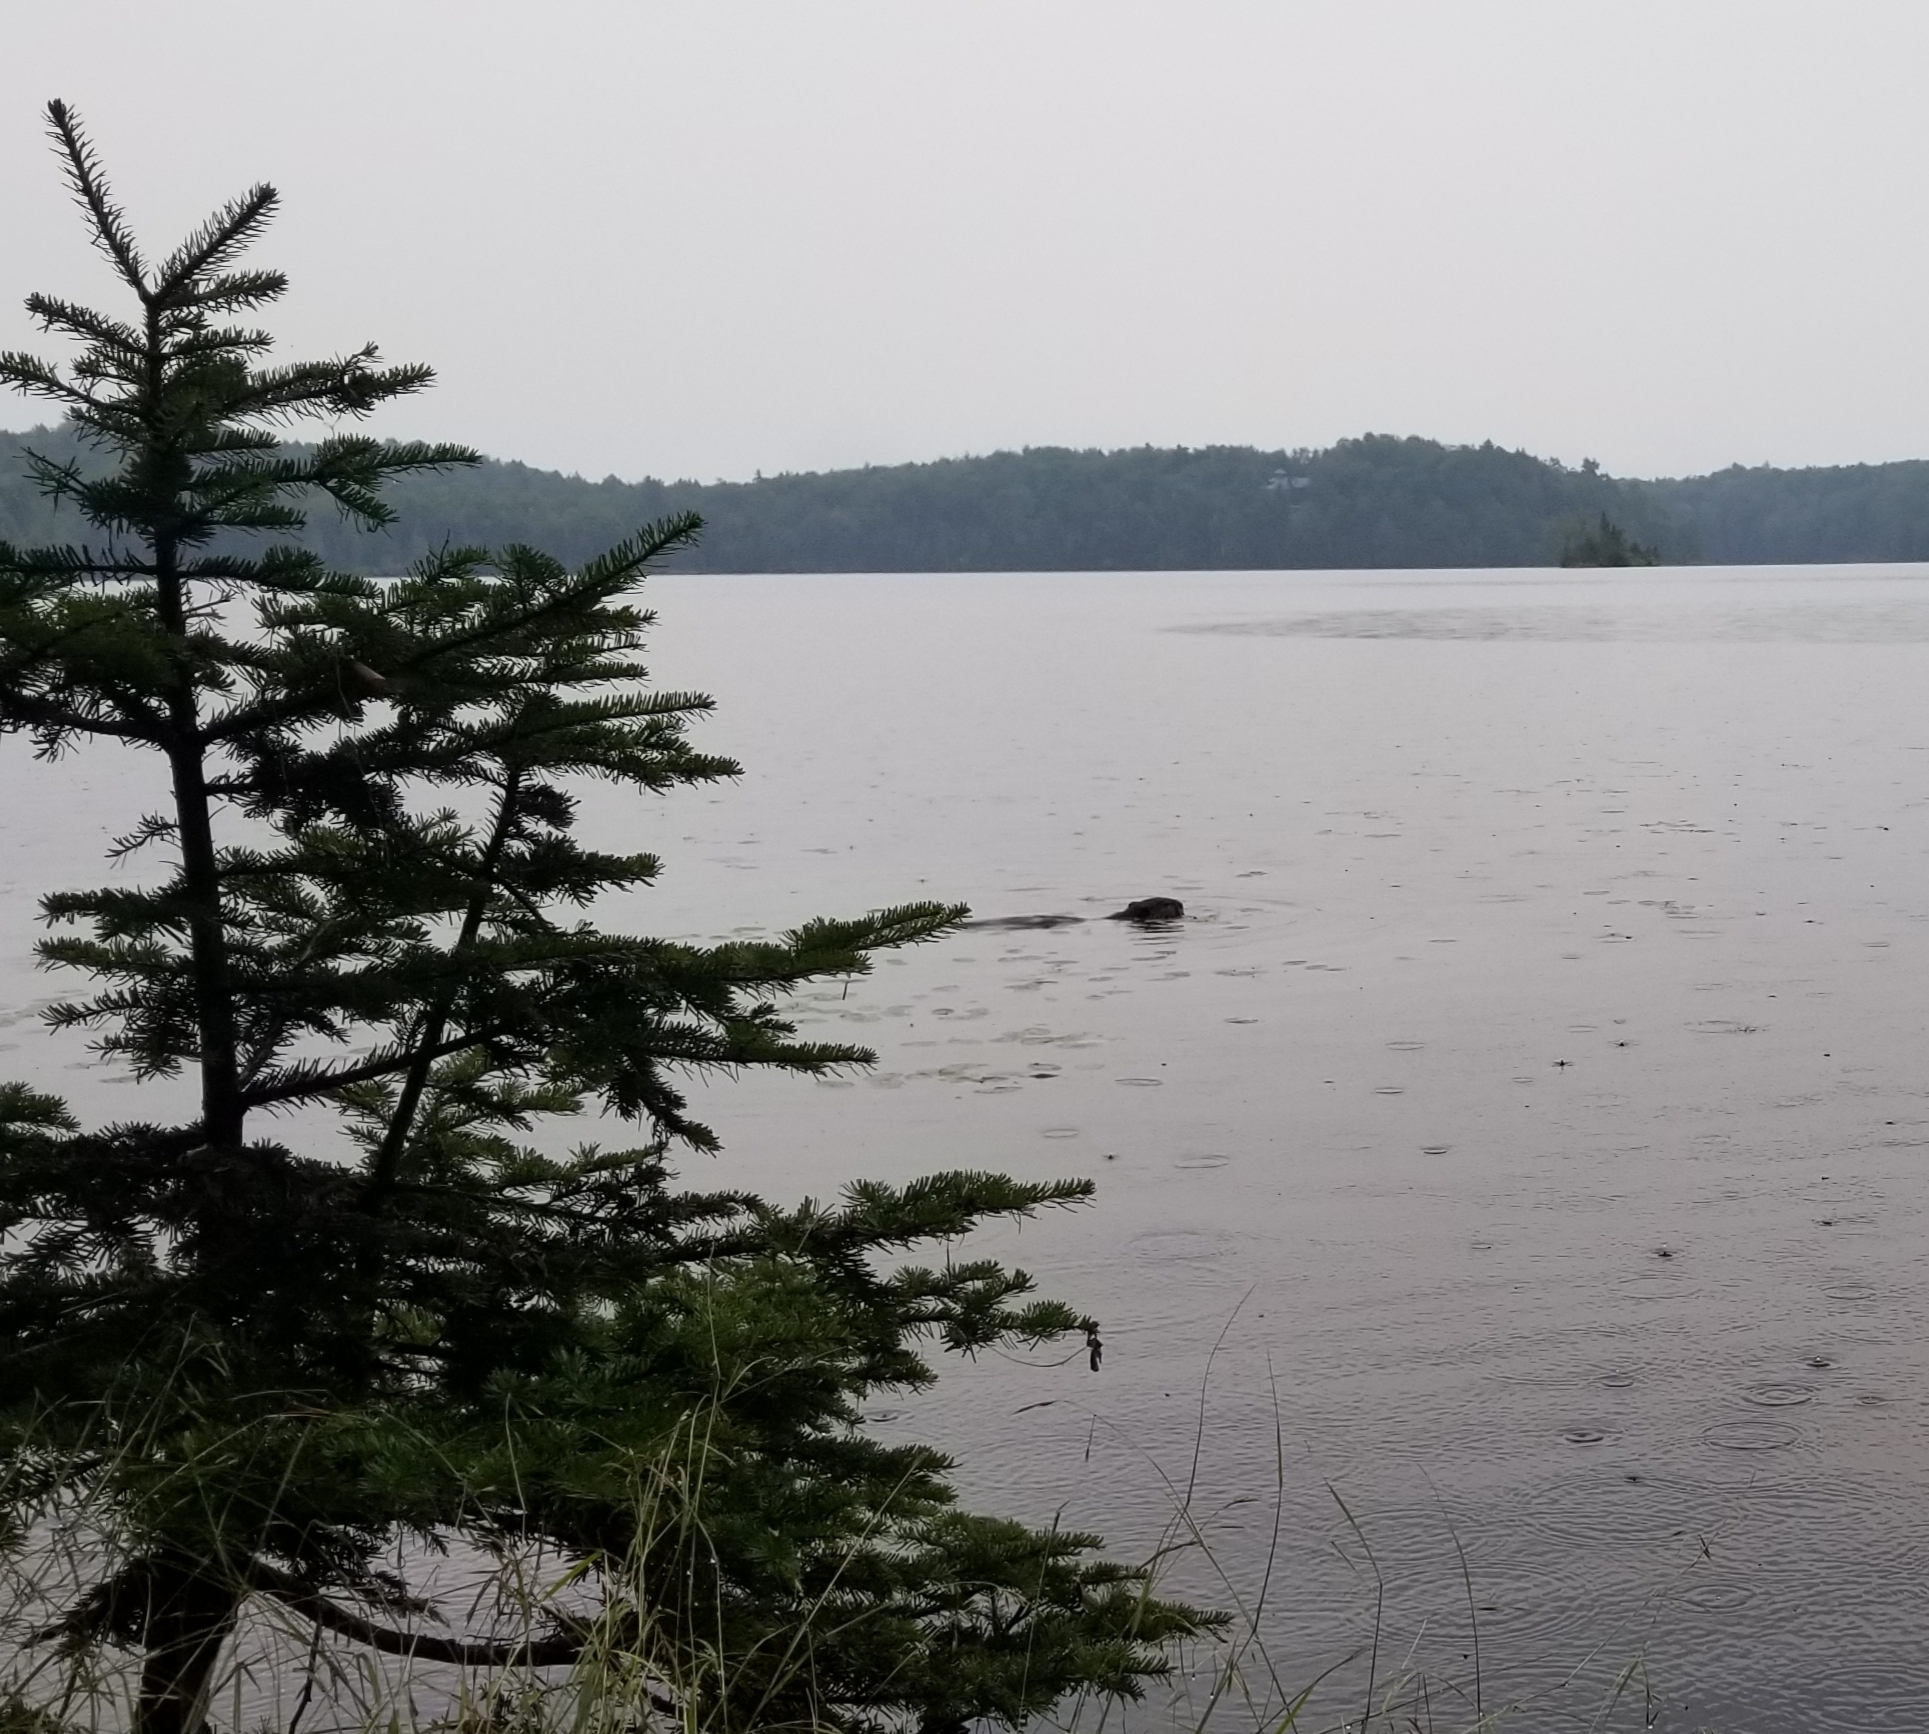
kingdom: Animalia
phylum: Chordata
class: Mammalia
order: Rodentia
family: Cricetidae
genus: Ondatra
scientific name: Ondatra zibethicus
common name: Muskrat
